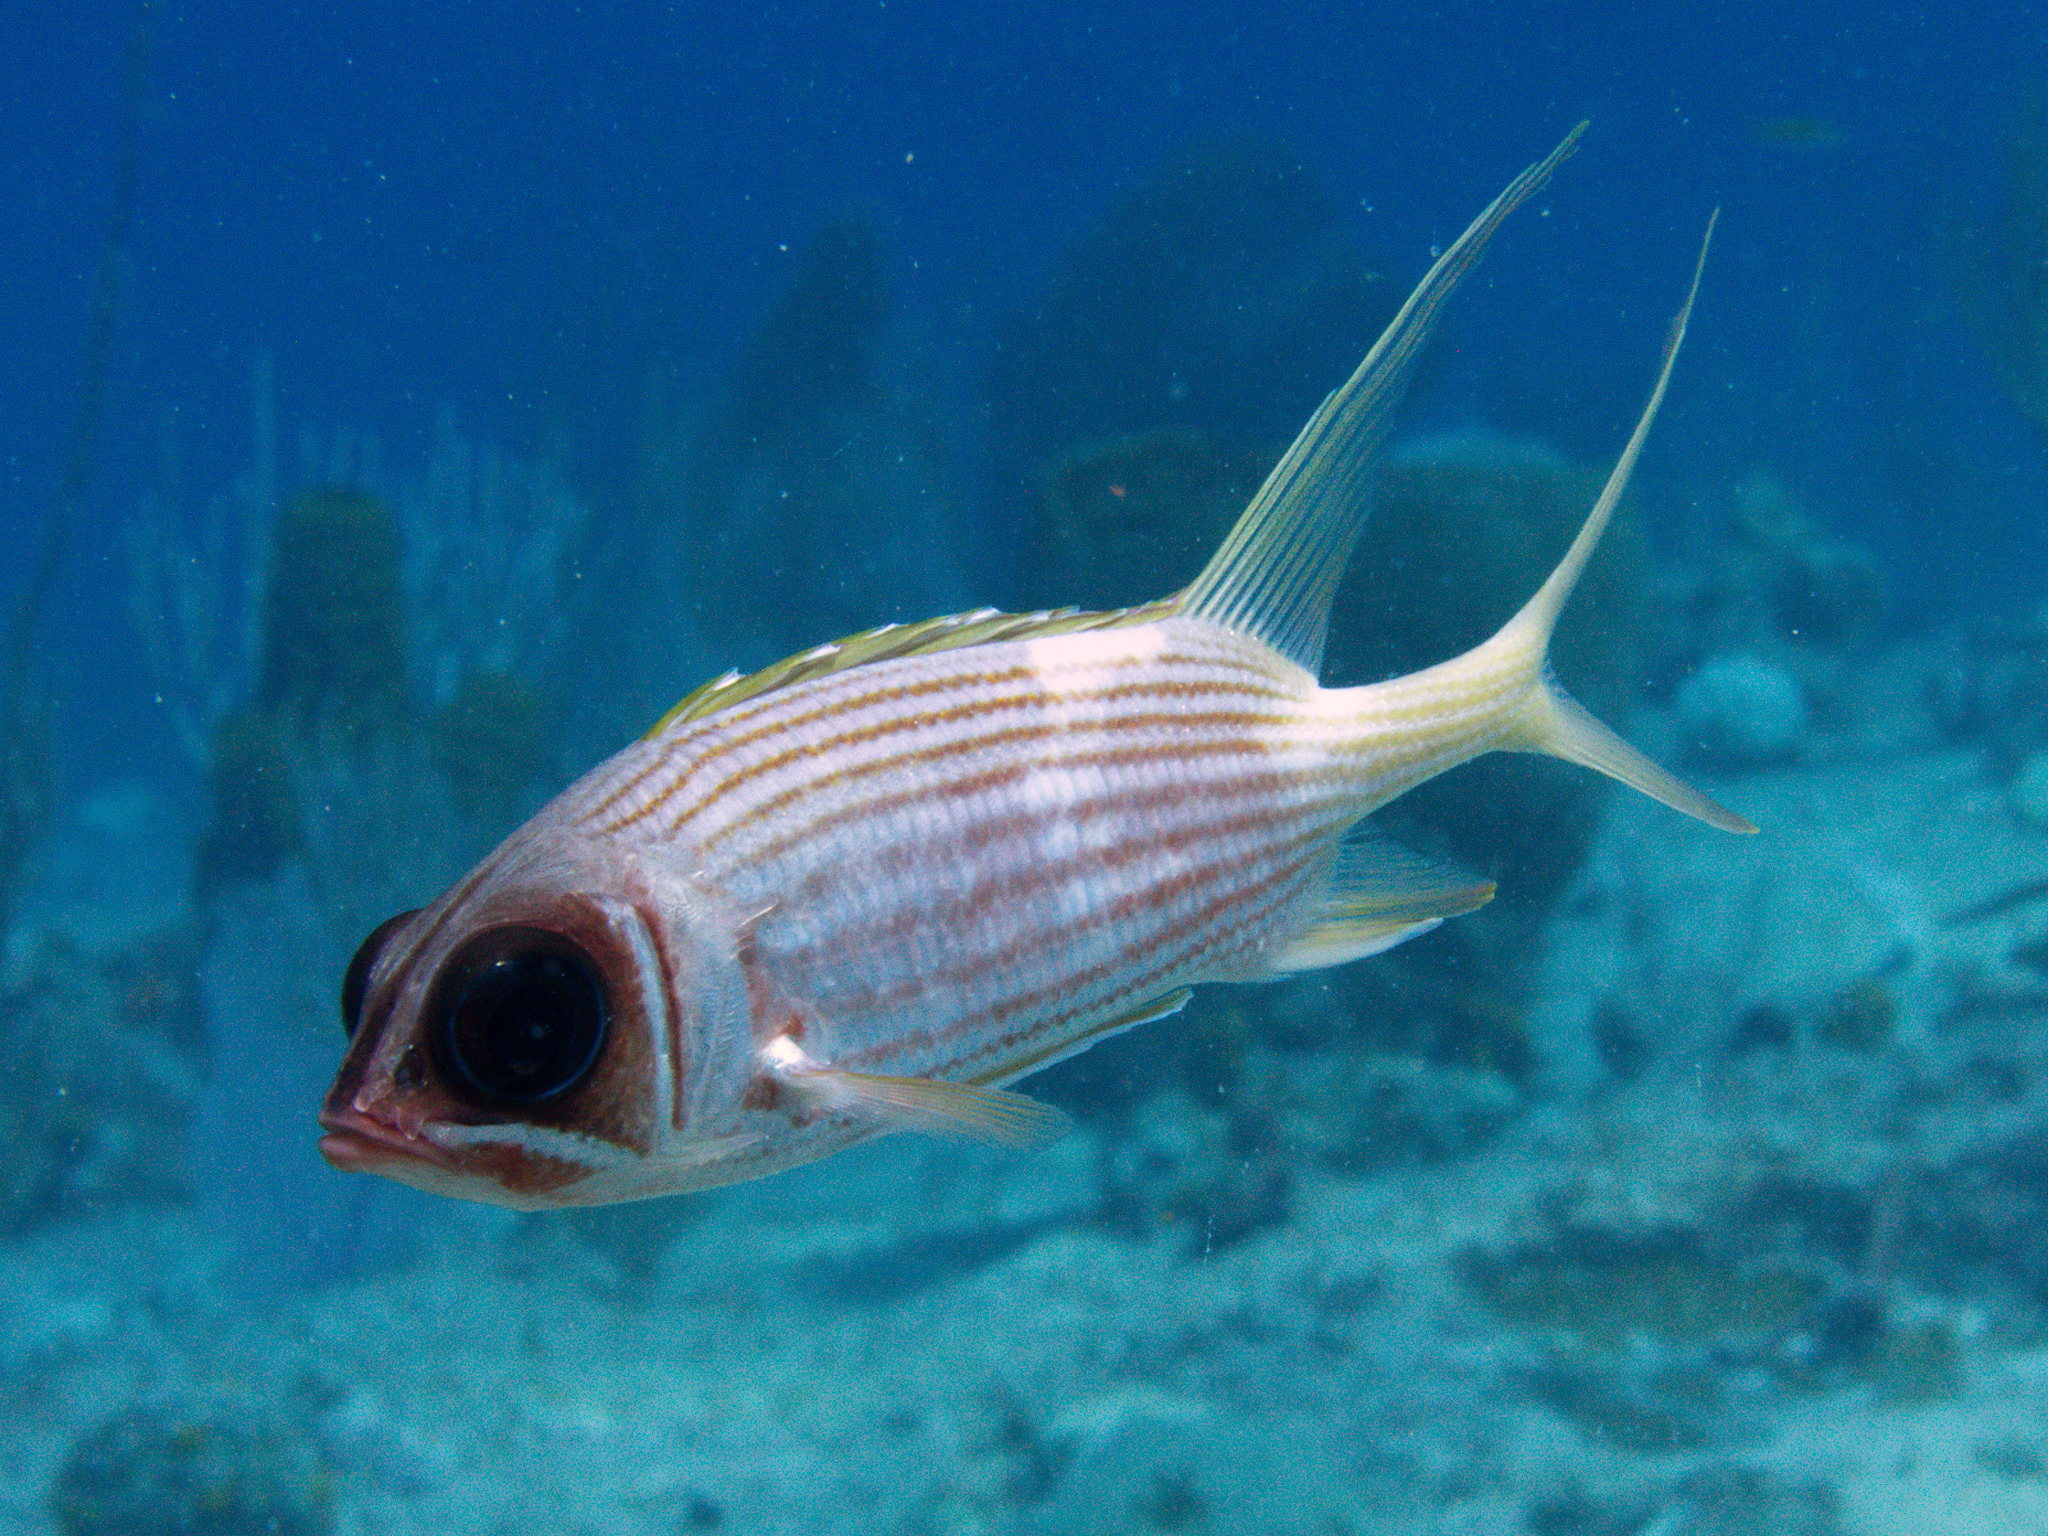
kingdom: Animalia
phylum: Chordata
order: Beryciformes
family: Holocentridae
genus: Holocentrus
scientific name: Holocentrus rufus
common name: Longspine squirrelfish
